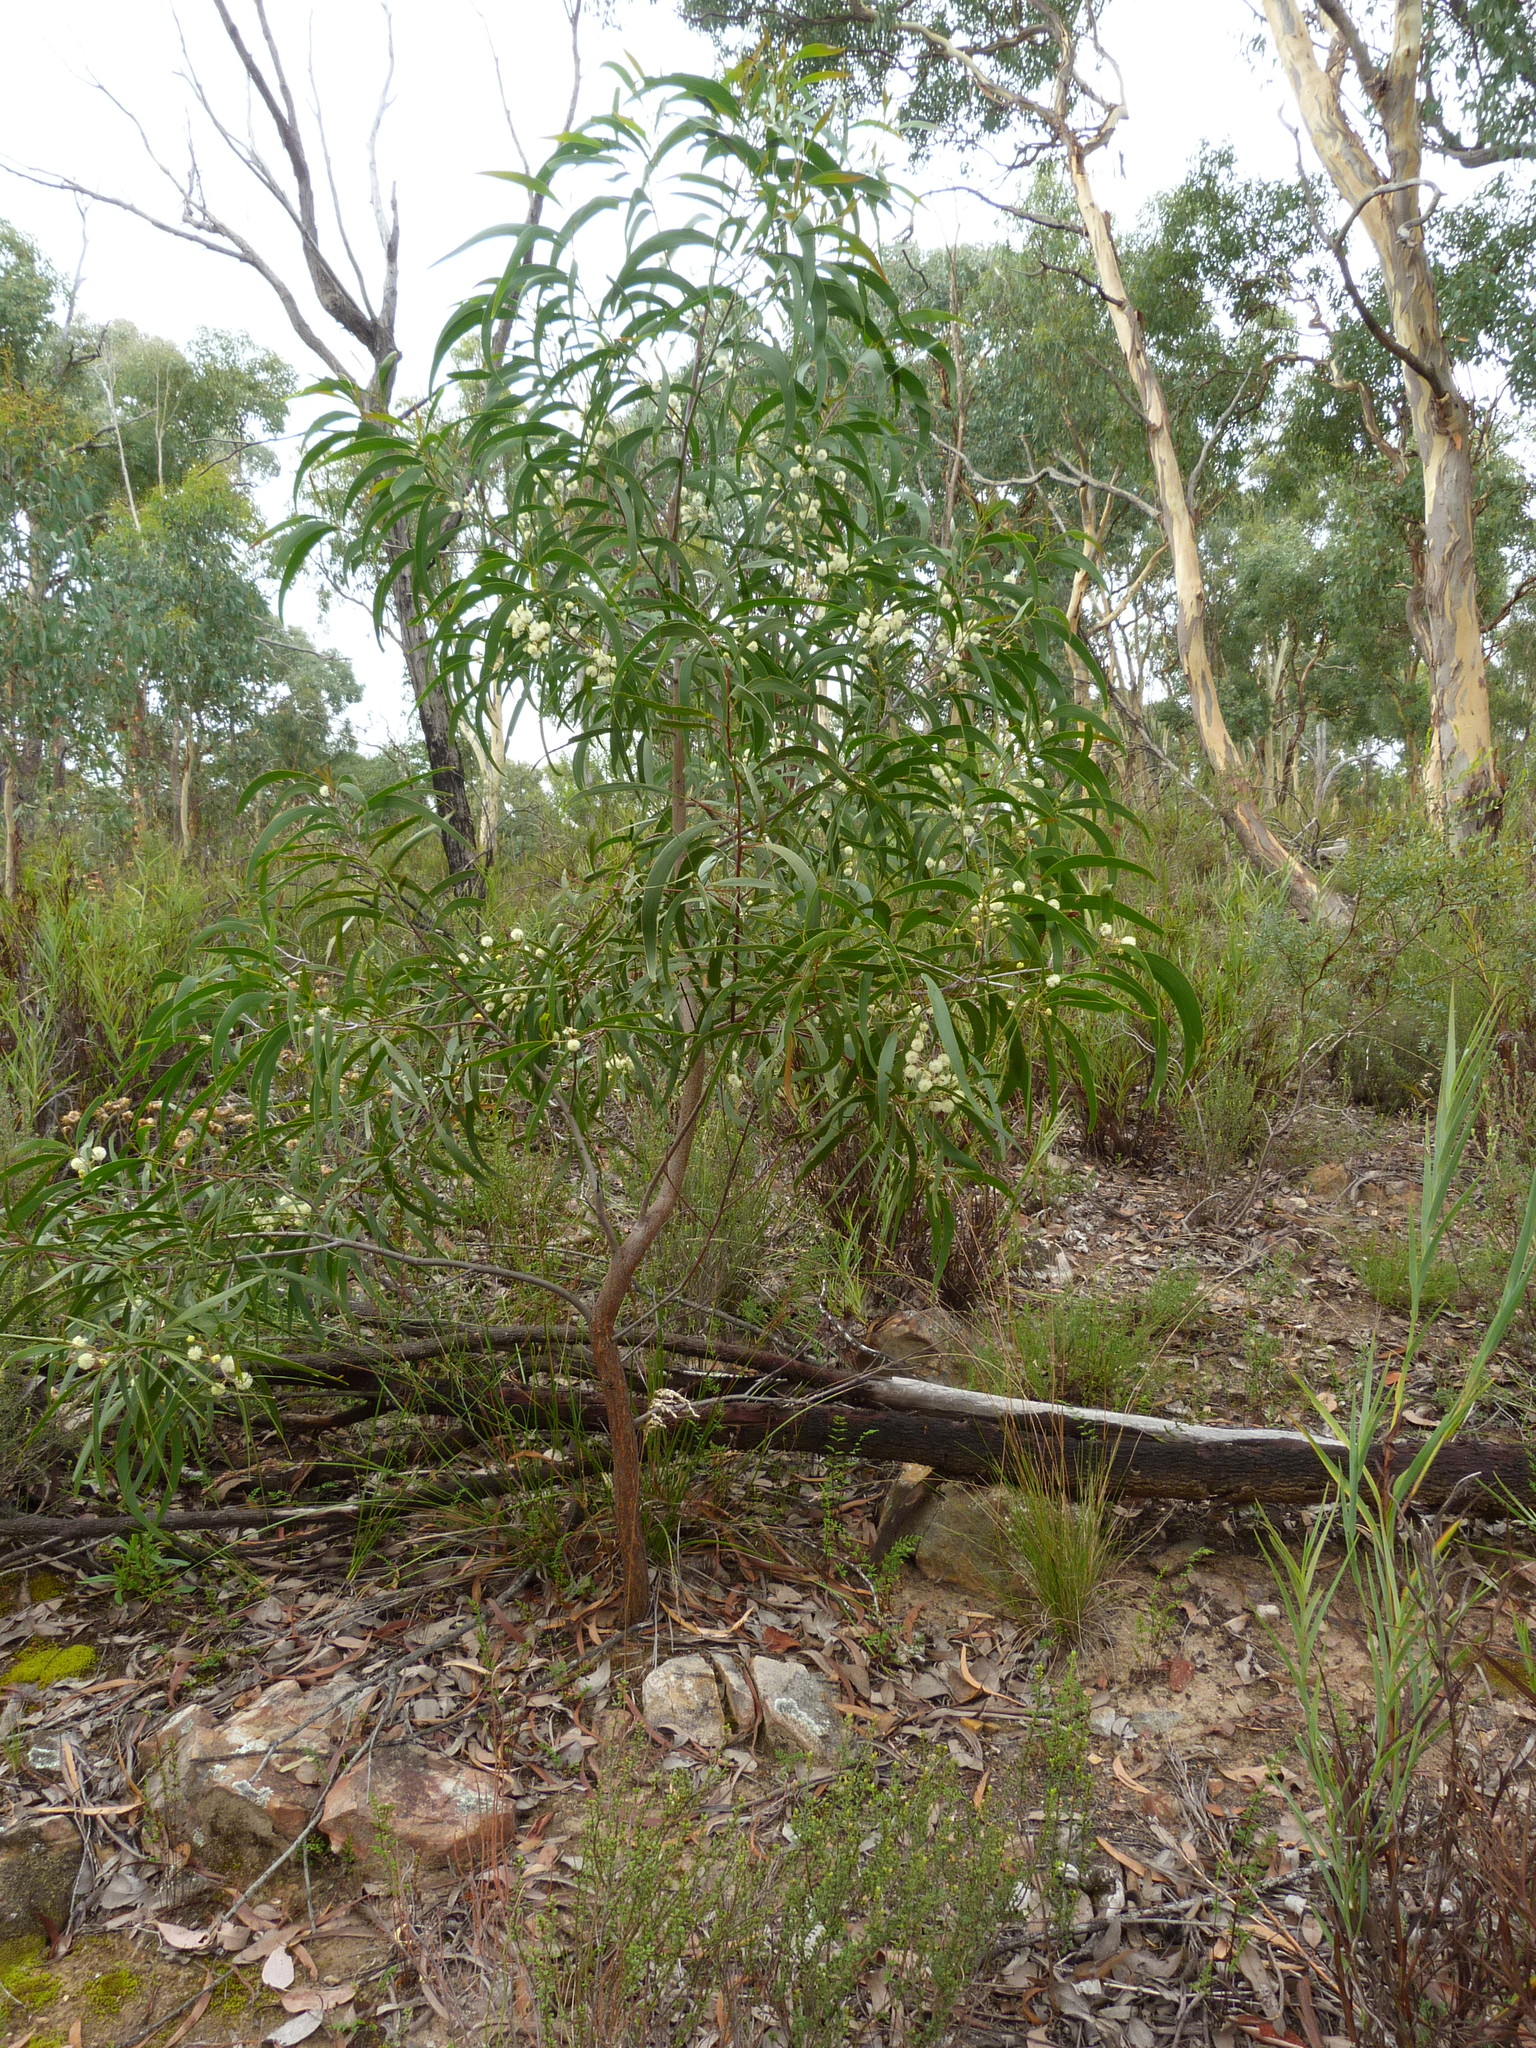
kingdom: Plantae
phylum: Tracheophyta
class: Magnoliopsida
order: Fabales
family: Fabaceae
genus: Acacia
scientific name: Acacia implexa
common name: Black wattle
